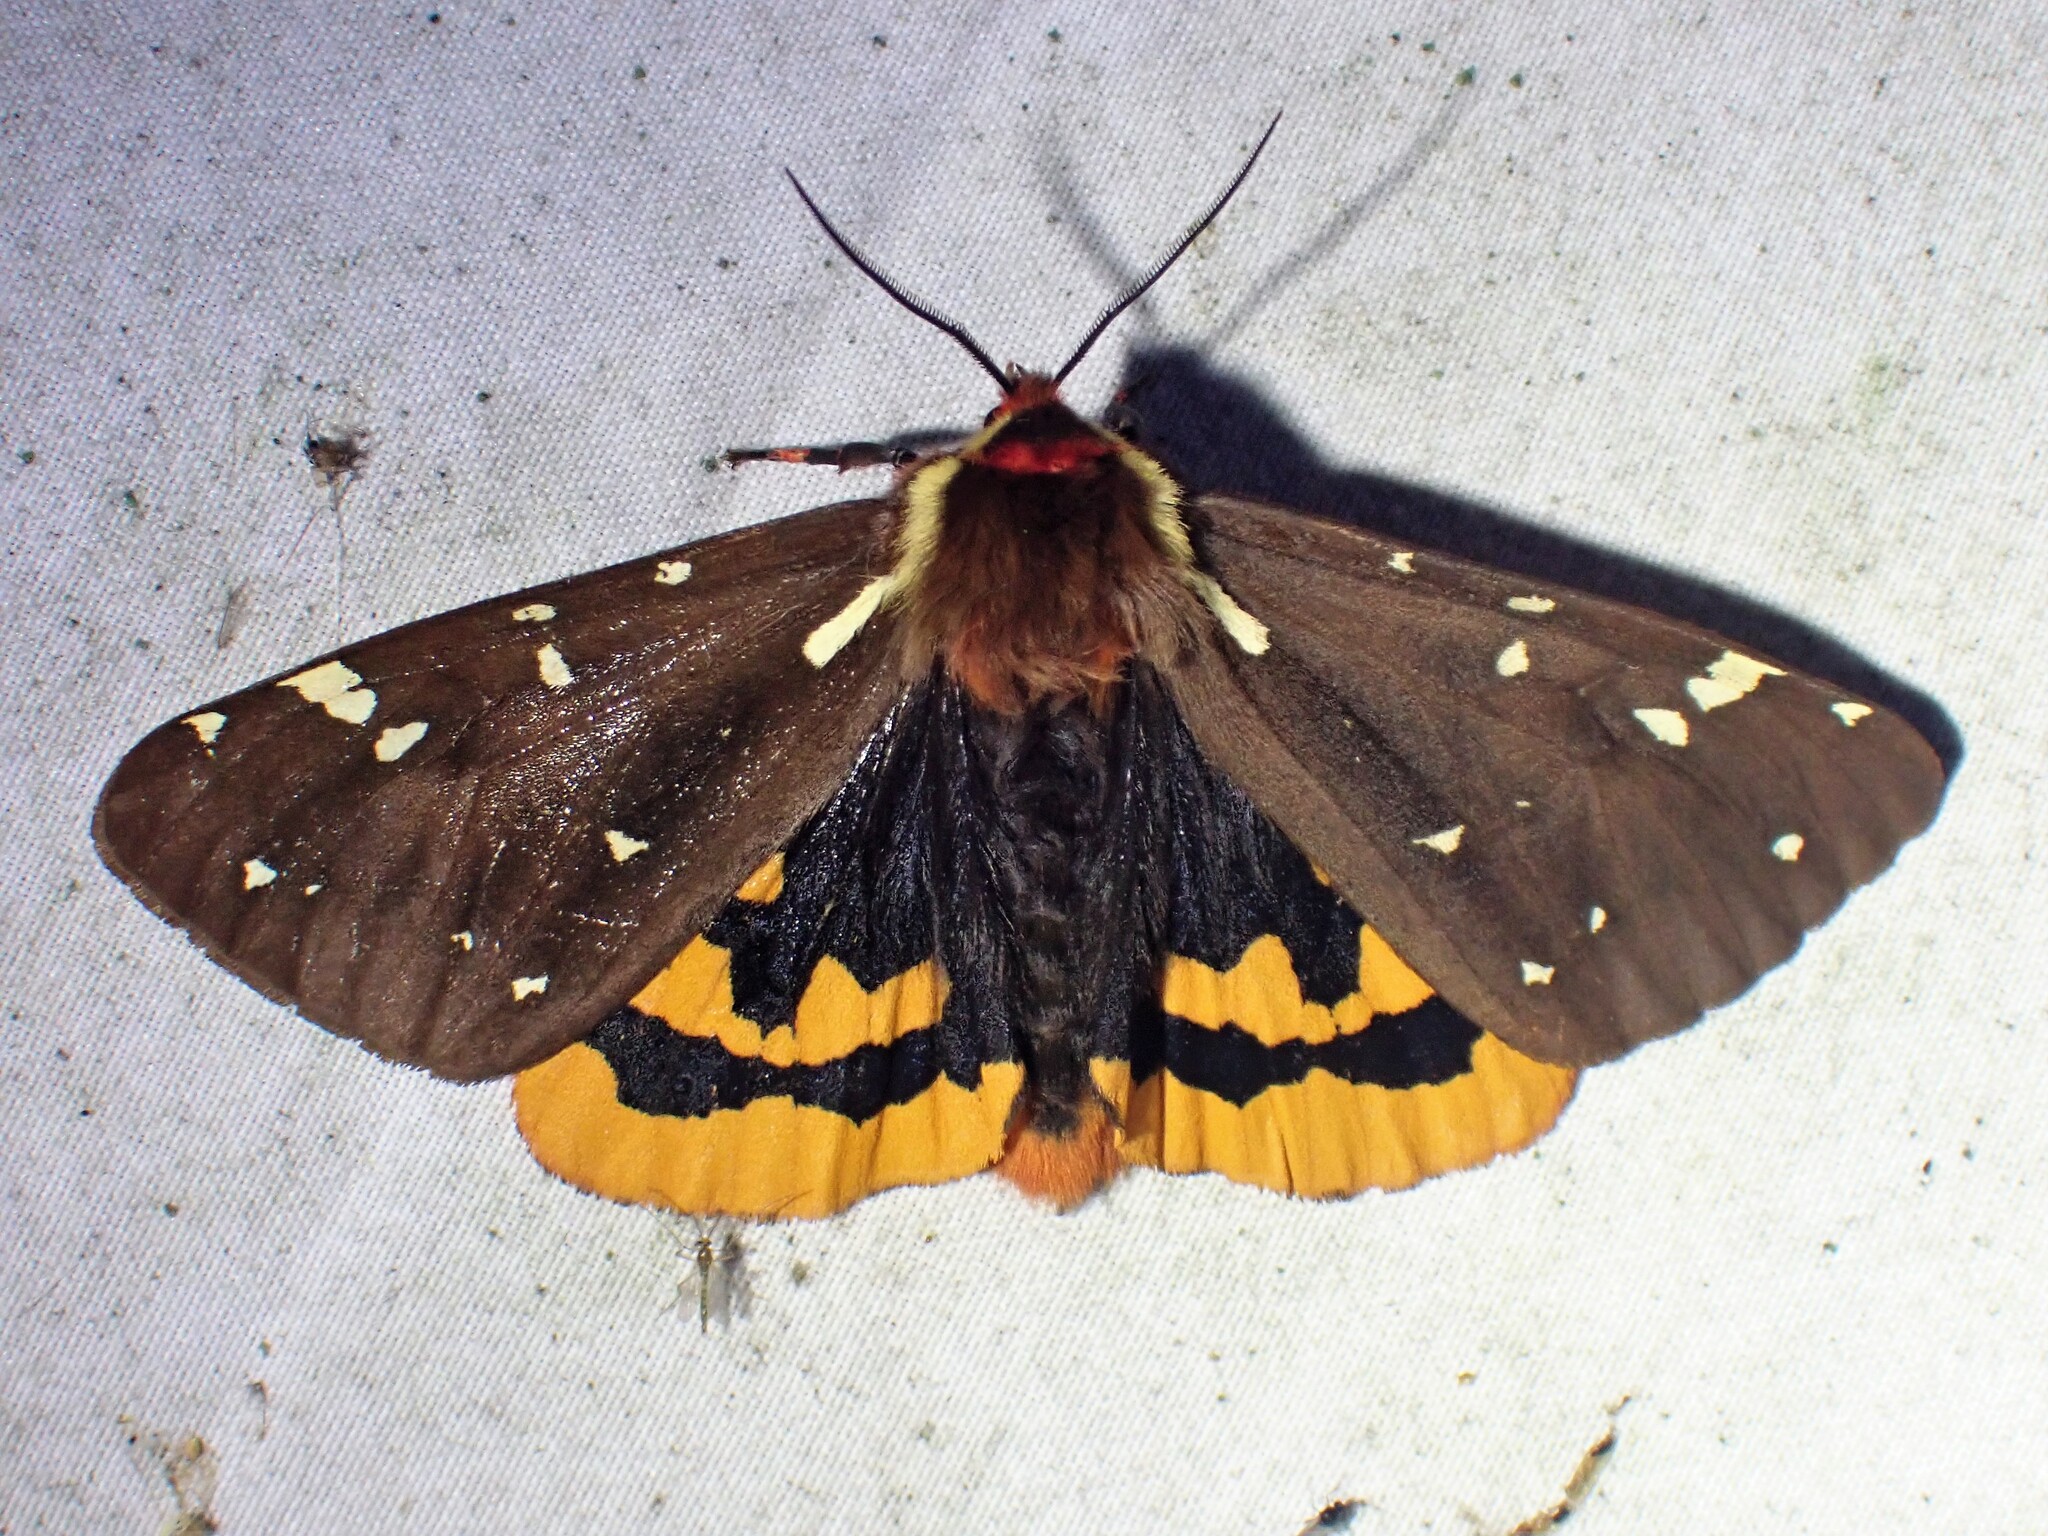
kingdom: Animalia
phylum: Arthropoda
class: Insecta
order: Lepidoptera
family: Erebidae
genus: Arctia
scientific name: Arctia parthenos
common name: St. lawrence tiger moth
